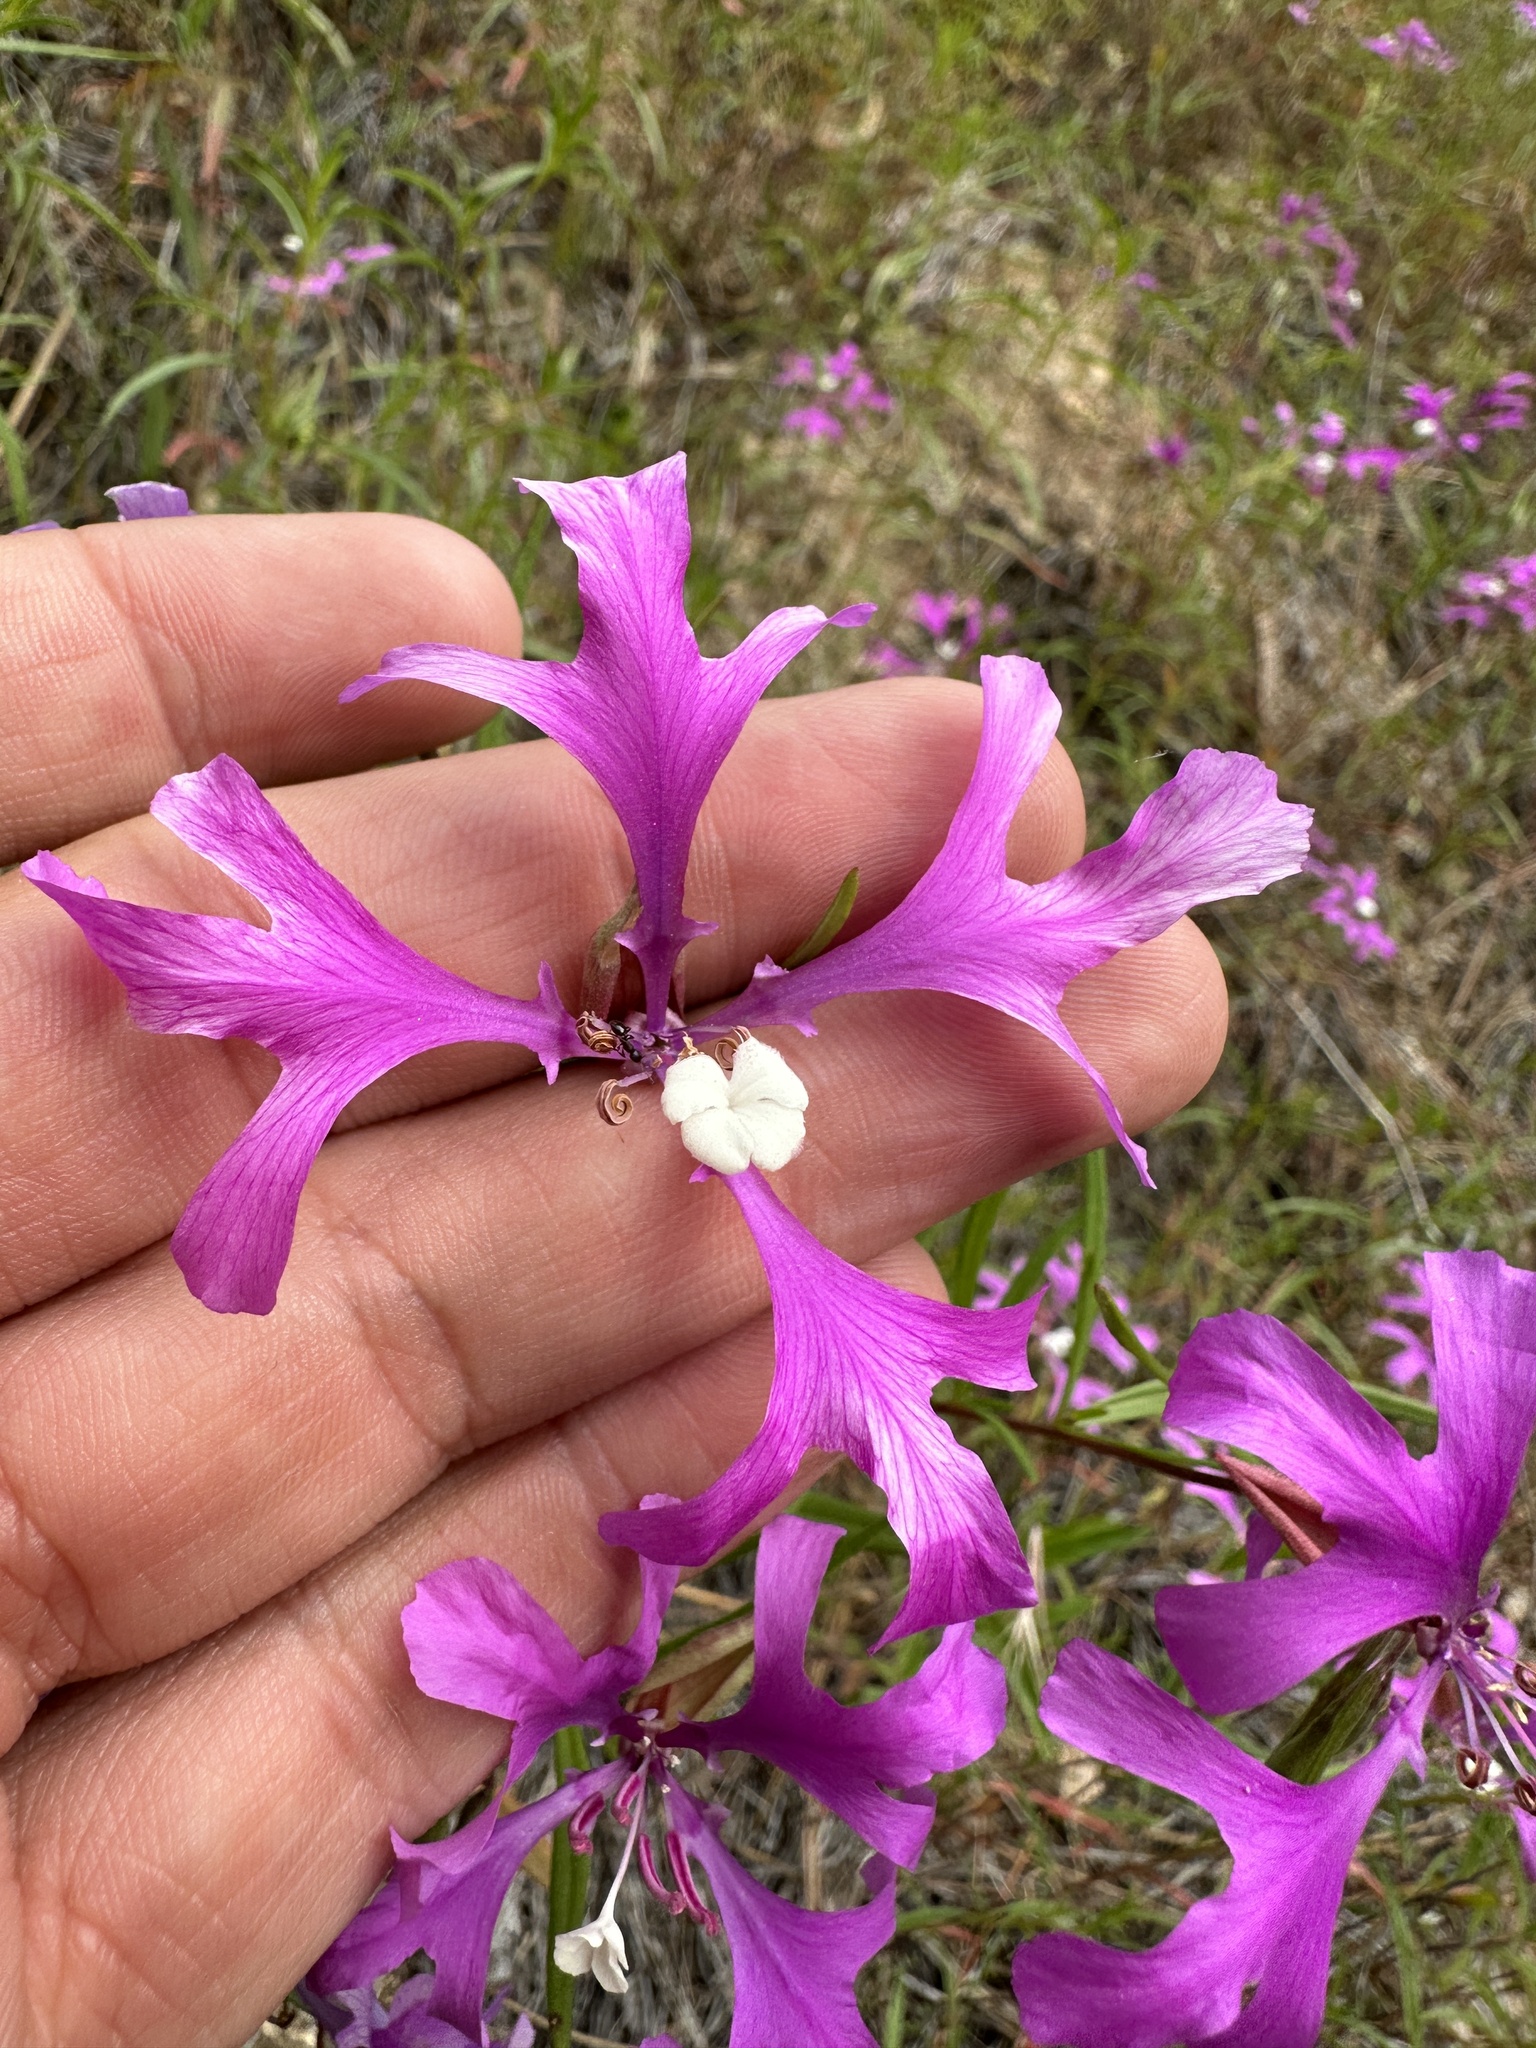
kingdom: Plantae
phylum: Tracheophyta
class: Magnoliopsida
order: Myrtales
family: Onagraceae
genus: Clarkia
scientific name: Clarkia pulchella
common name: Deer horn
